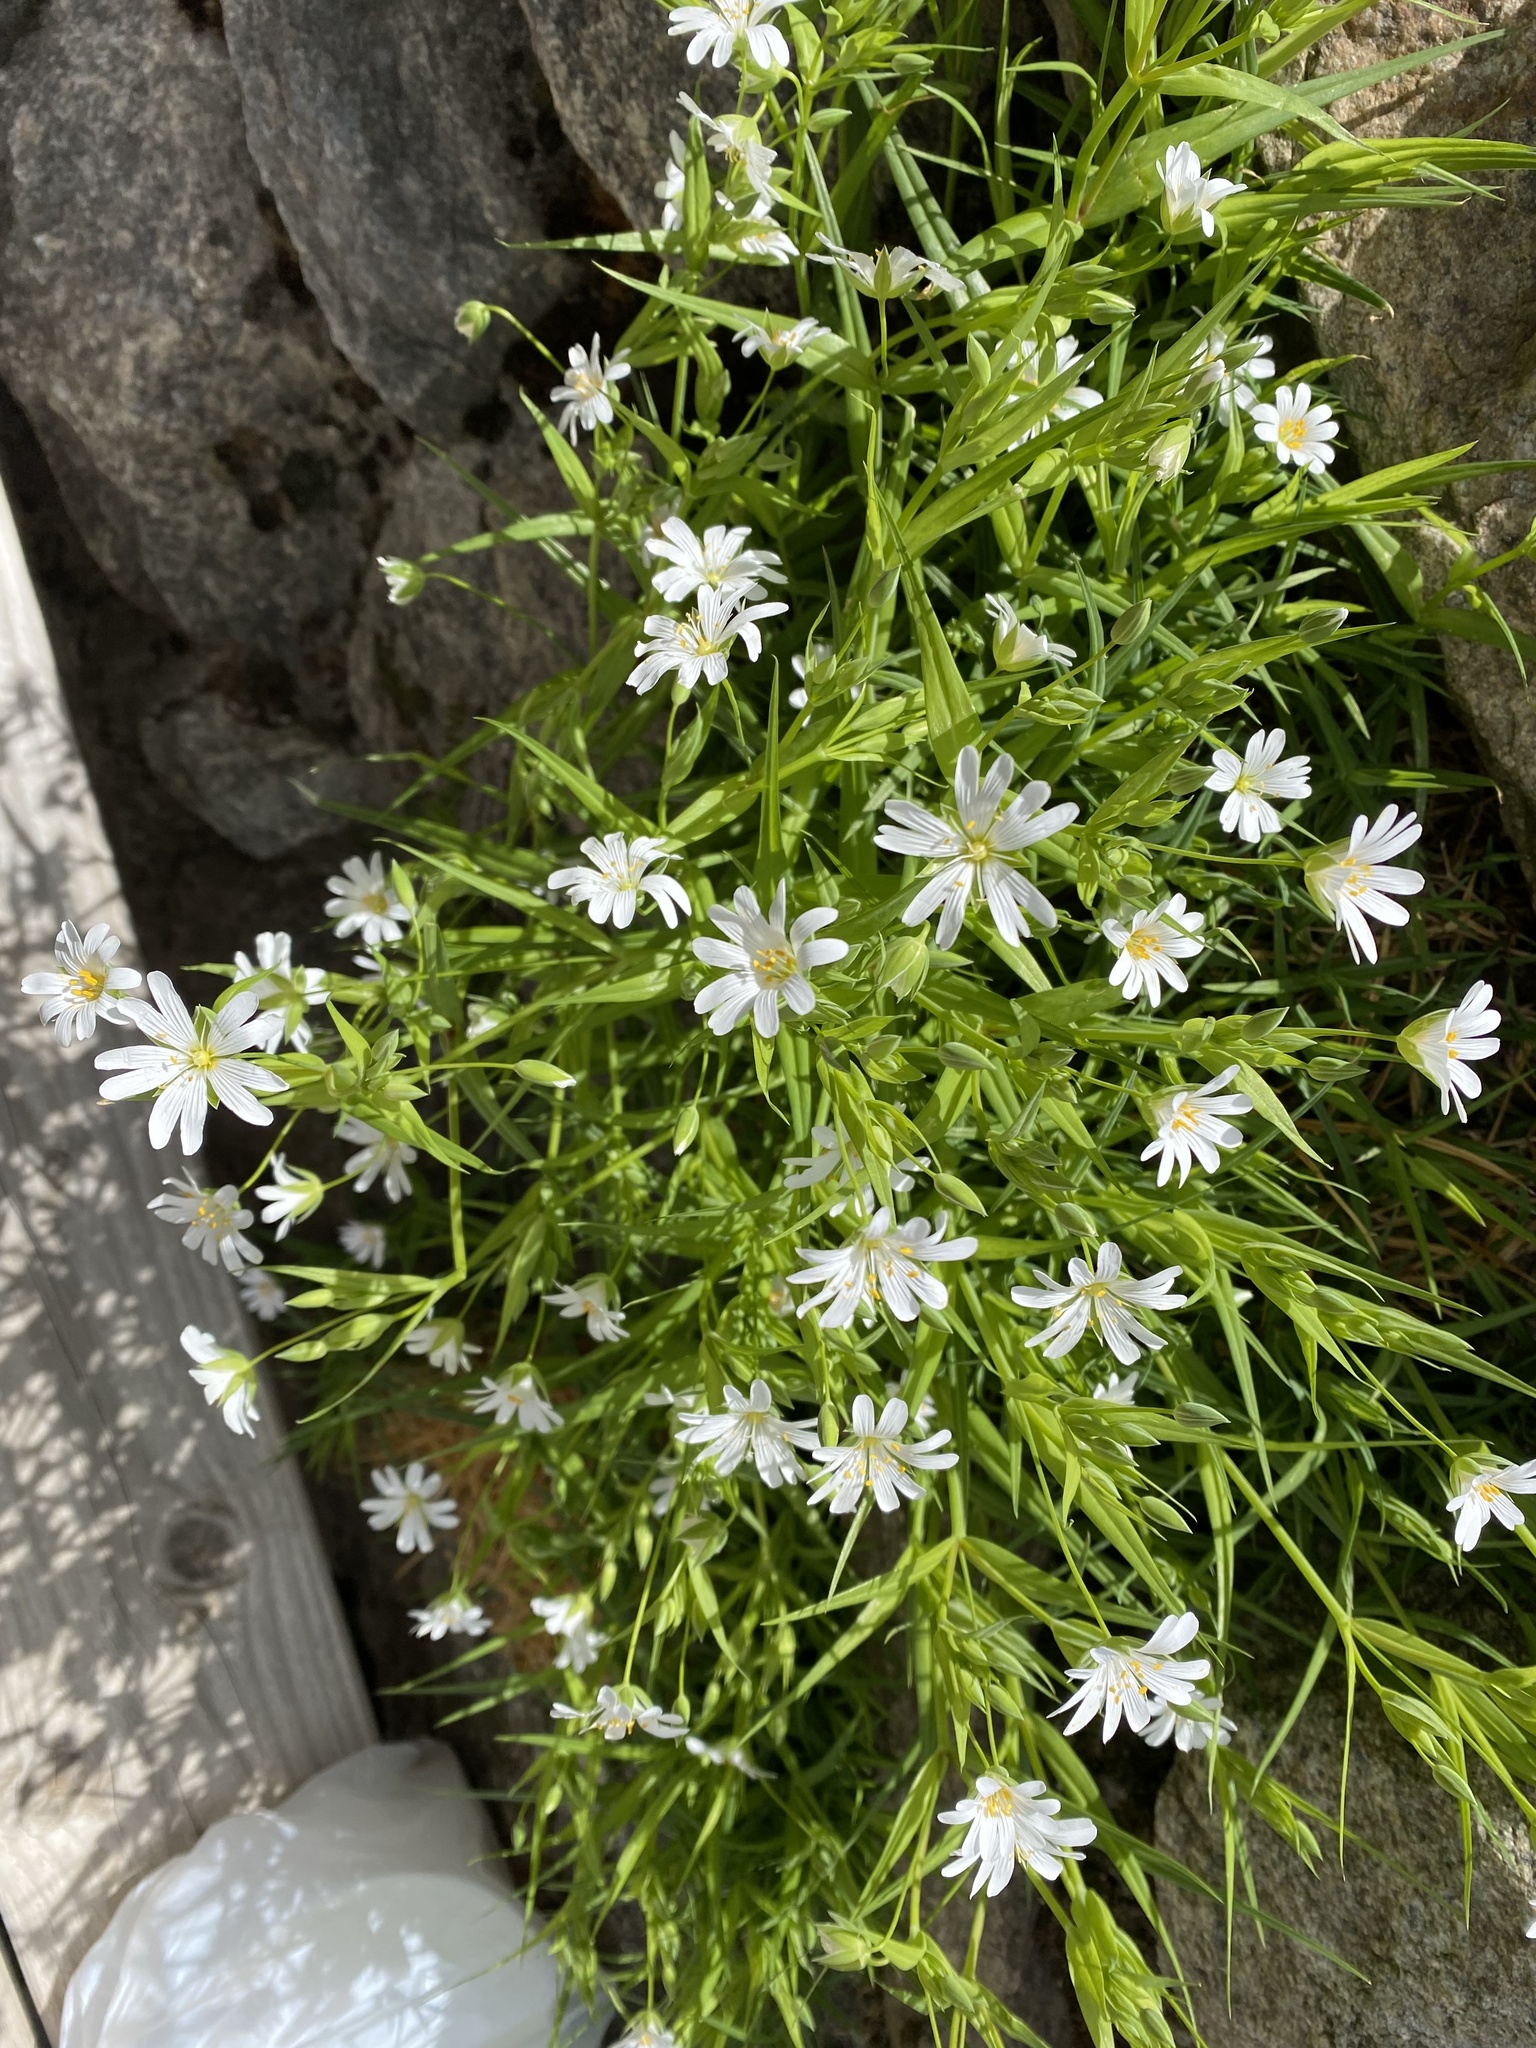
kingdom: Plantae
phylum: Tracheophyta
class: Magnoliopsida
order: Caryophyllales
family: Caryophyllaceae
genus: Rabelera
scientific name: Rabelera holostea
